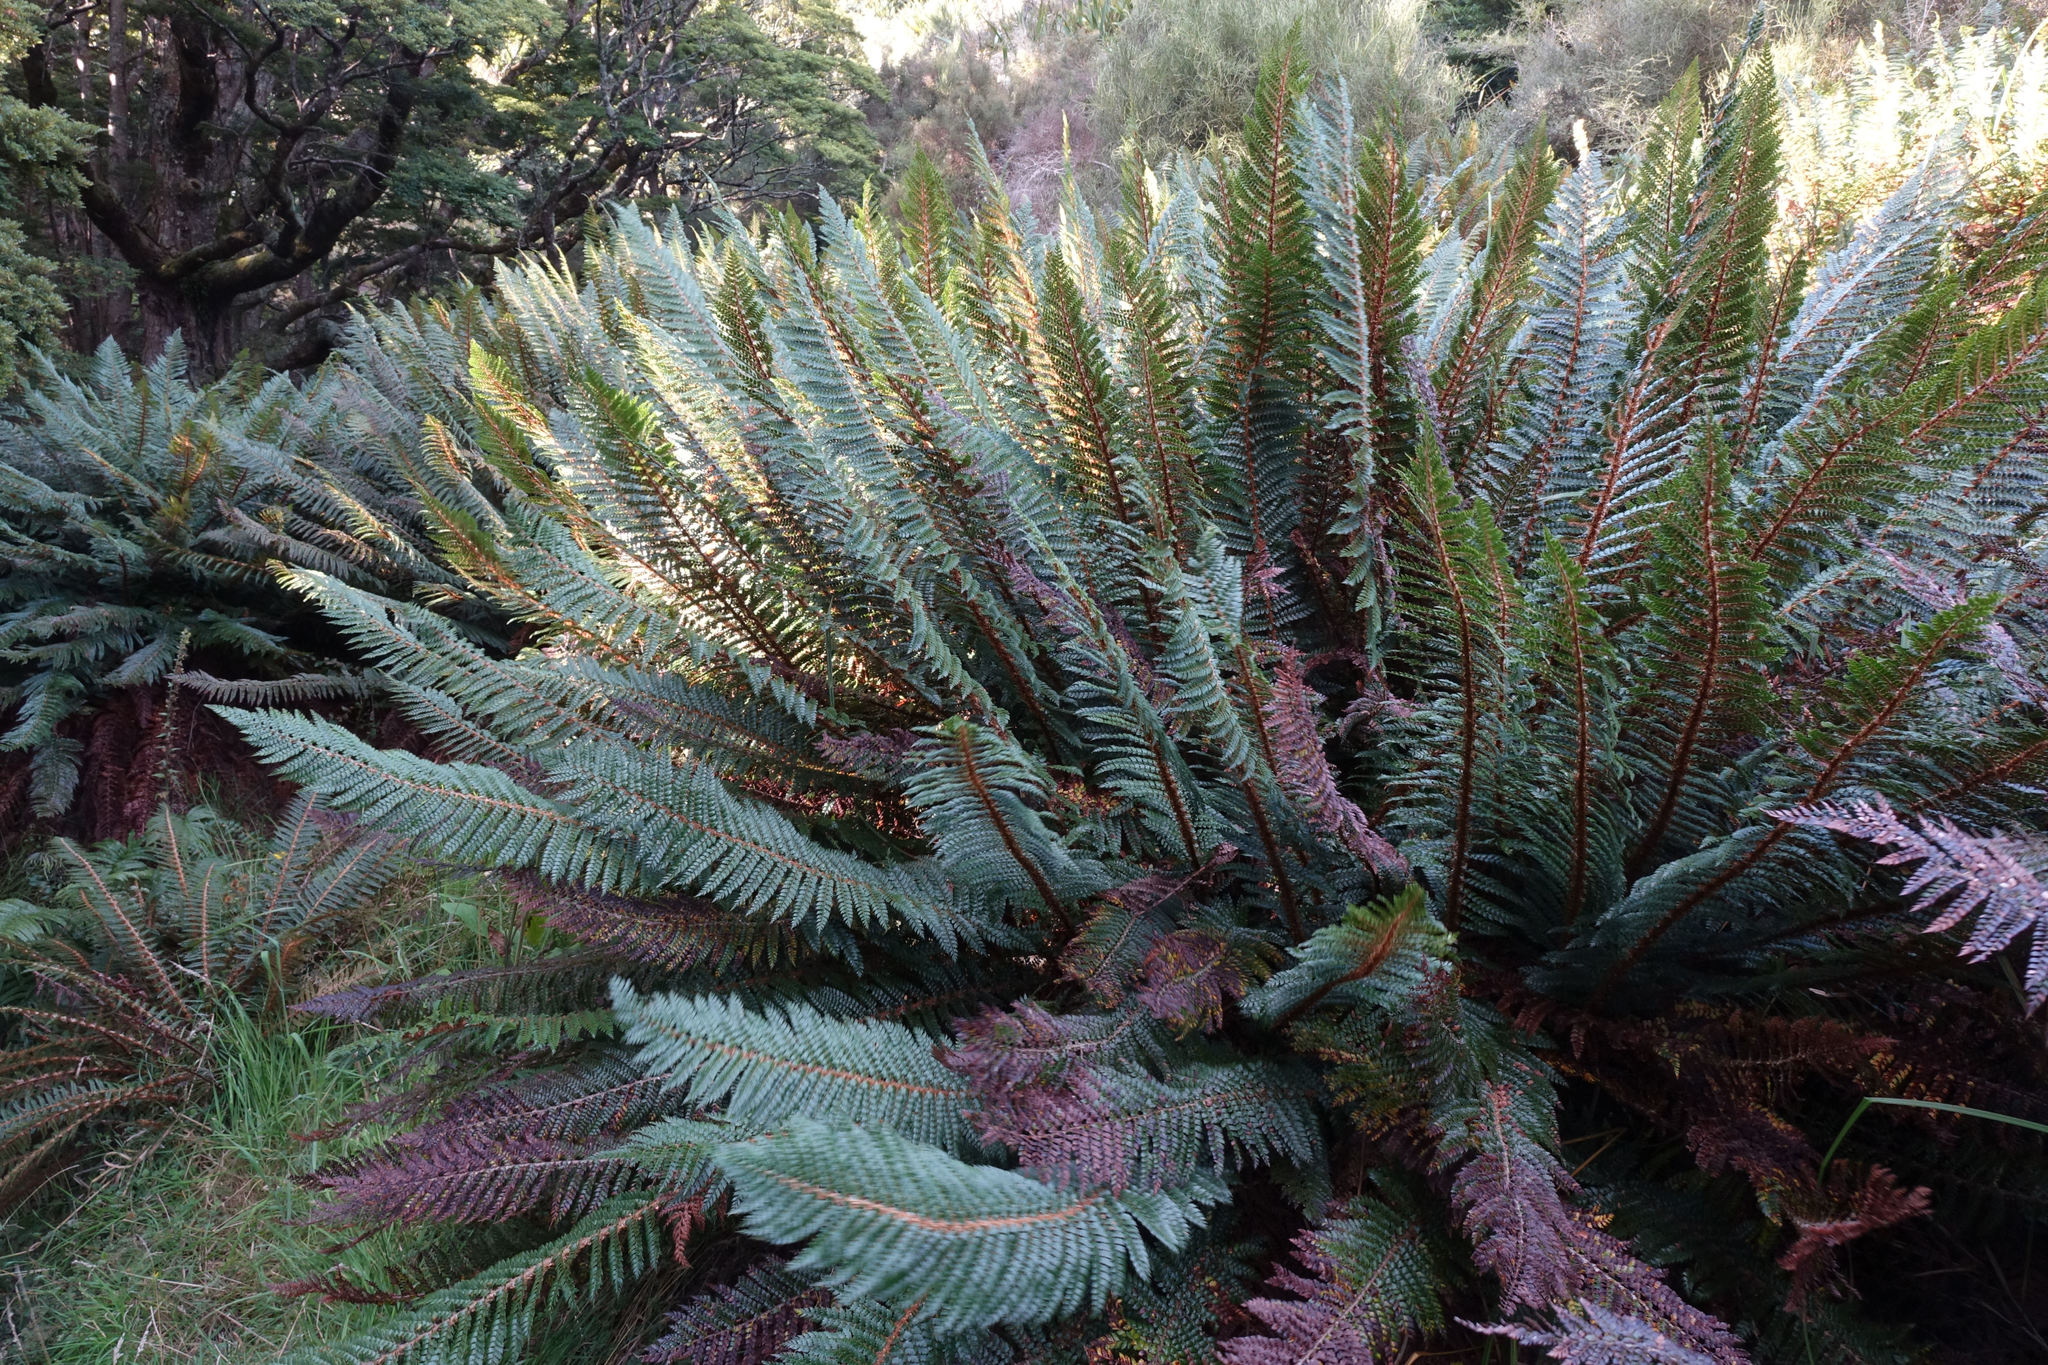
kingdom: Plantae
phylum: Tracheophyta
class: Polypodiopsida
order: Polypodiales
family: Dryopteridaceae
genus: Polystichum
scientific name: Polystichum vestitum
